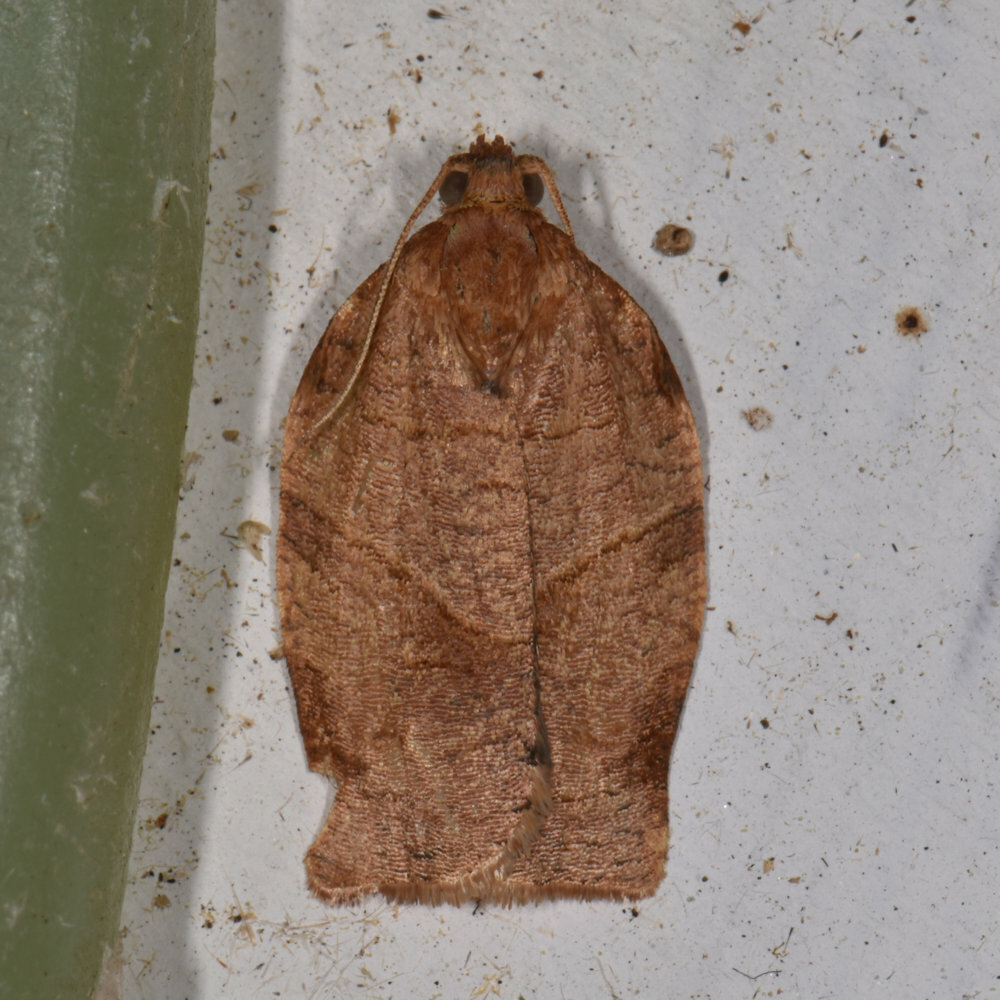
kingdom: Animalia
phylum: Arthropoda
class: Insecta
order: Lepidoptera
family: Tortricidae
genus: Choristoneura
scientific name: Choristoneura rosaceana
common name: Oblique-banded leafroller moth
